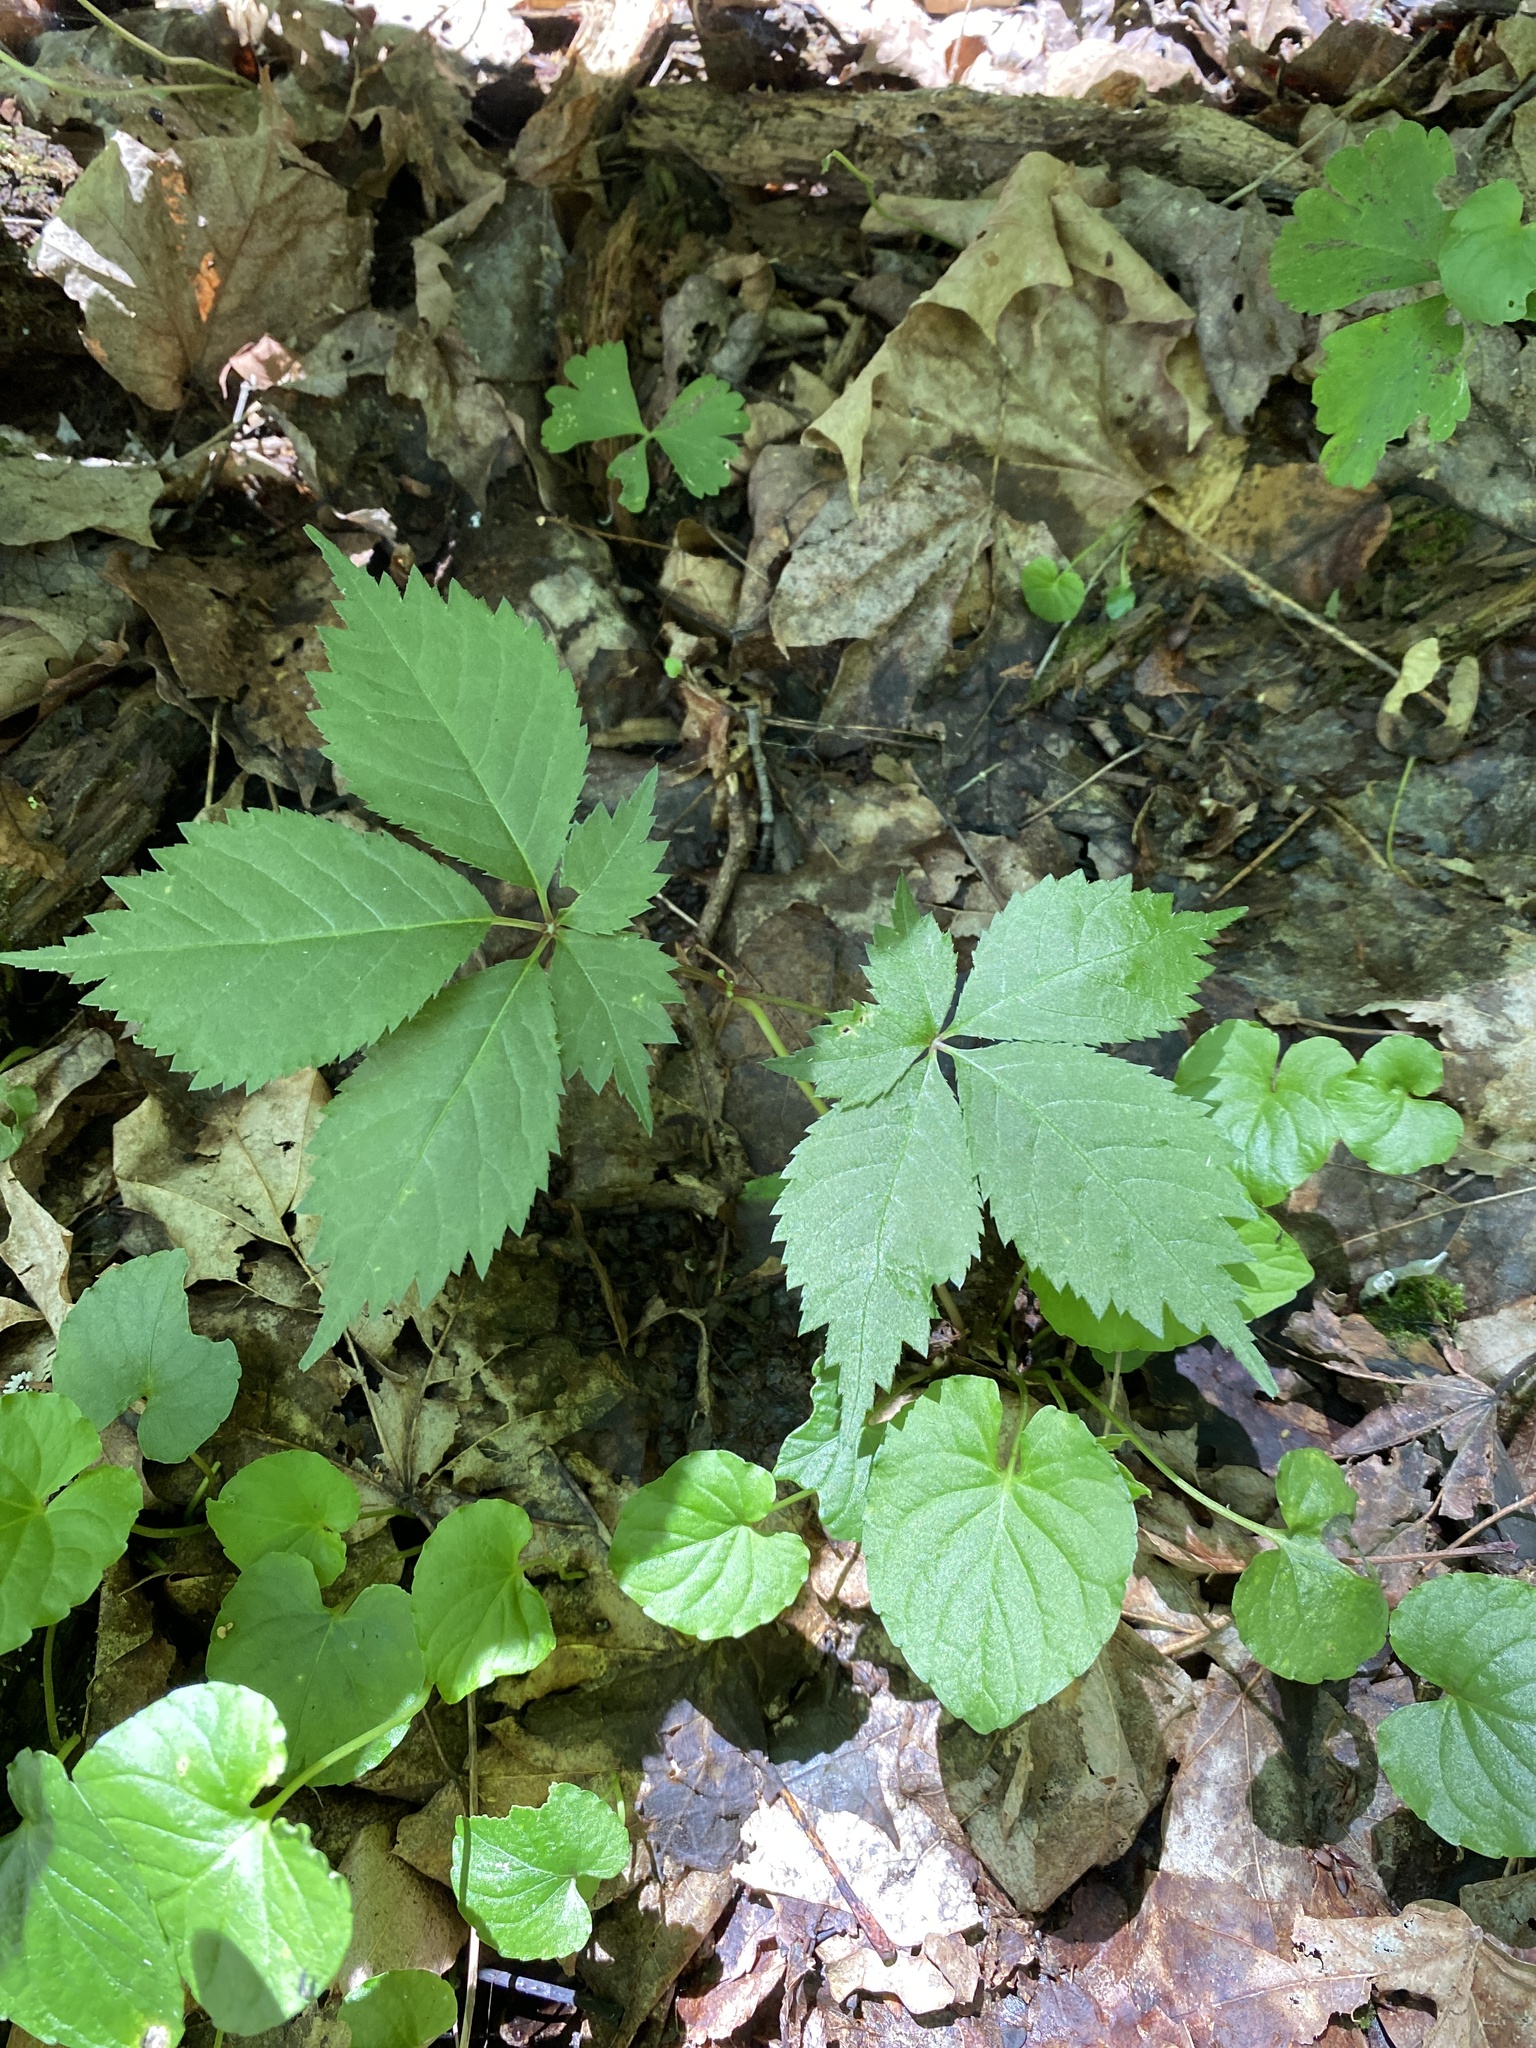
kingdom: Plantae
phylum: Tracheophyta
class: Magnoliopsida
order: Apiales
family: Araliaceae
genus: Panax
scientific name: Panax quinquefolius
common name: American ginseng
